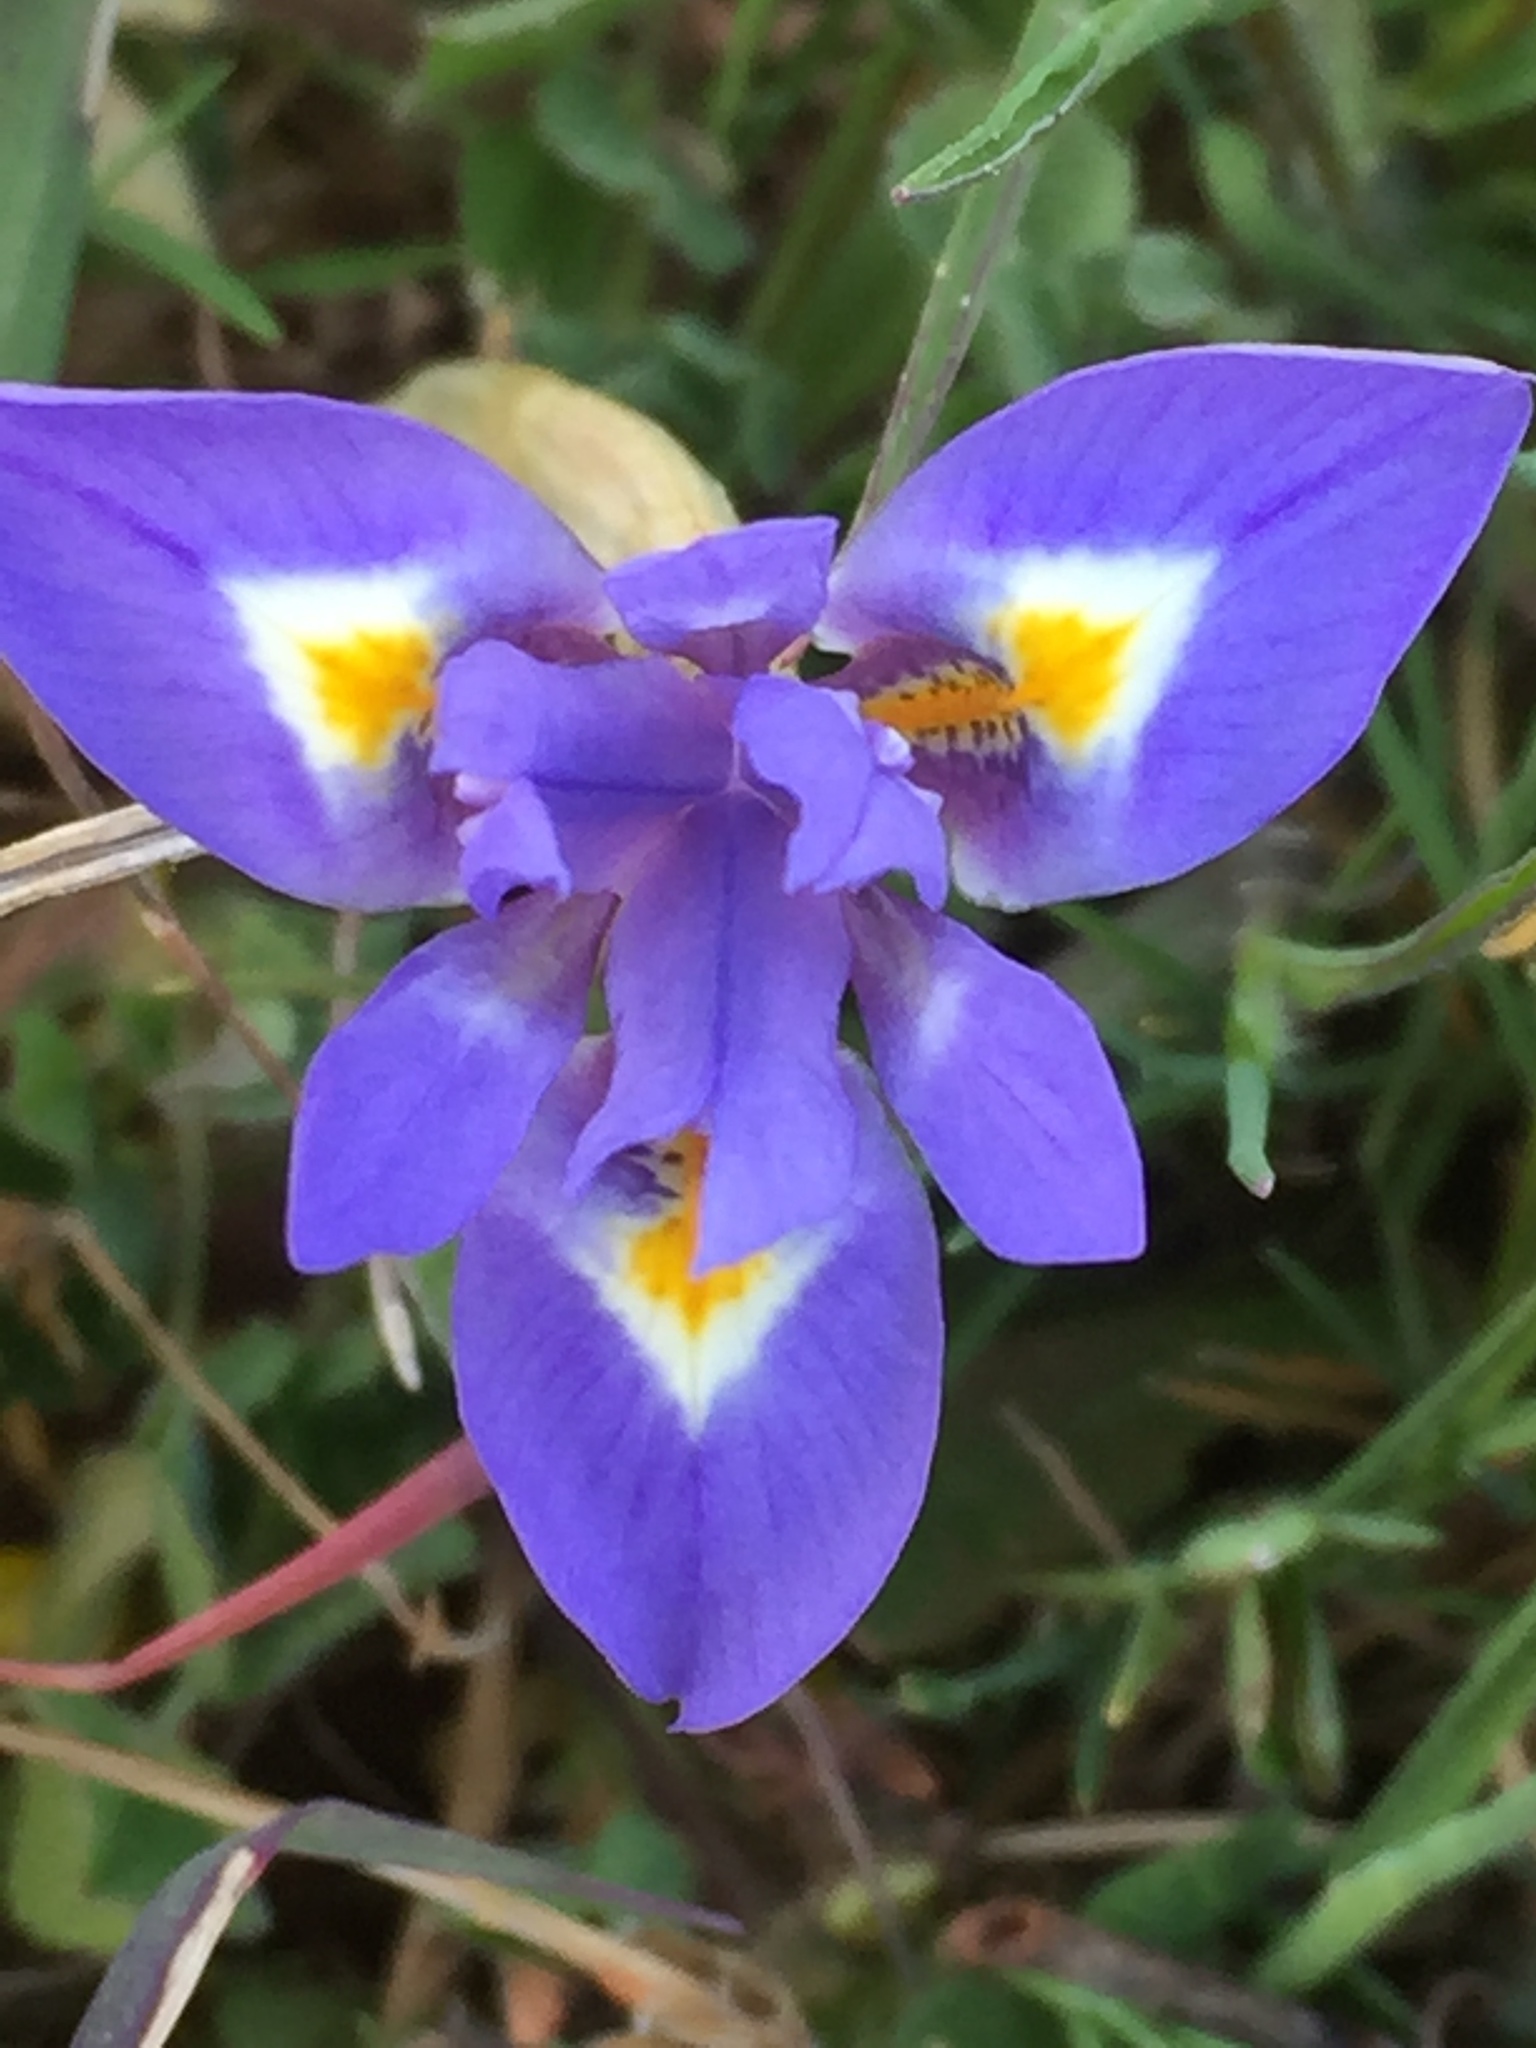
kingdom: Plantae
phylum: Tracheophyta
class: Liliopsida
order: Asparagales
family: Iridaceae
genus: Moraea
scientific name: Moraea sisyrinchium
